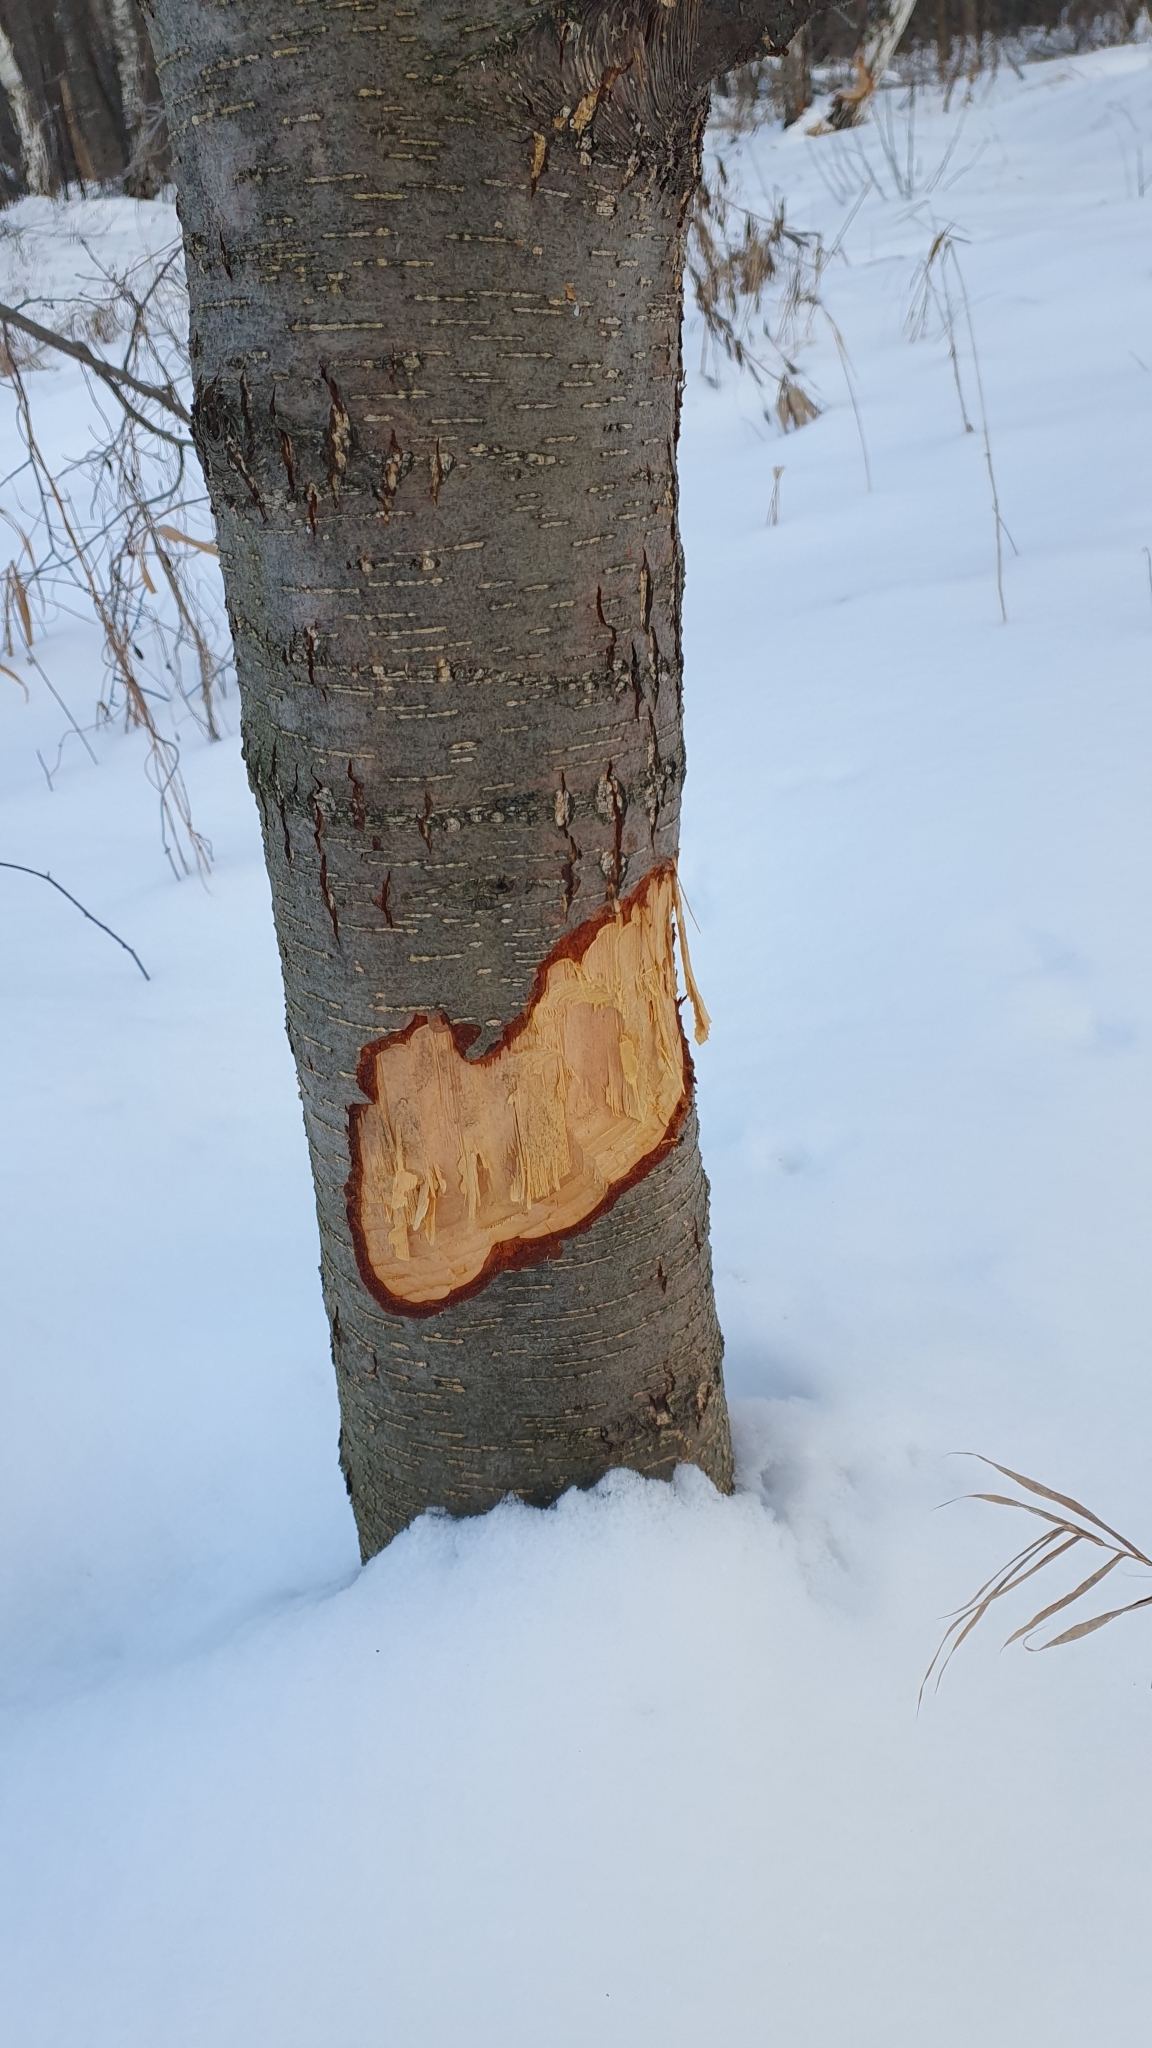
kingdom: Animalia
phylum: Chordata
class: Mammalia
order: Rodentia
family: Castoridae
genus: Castor
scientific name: Castor fiber
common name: Eurasian beaver
